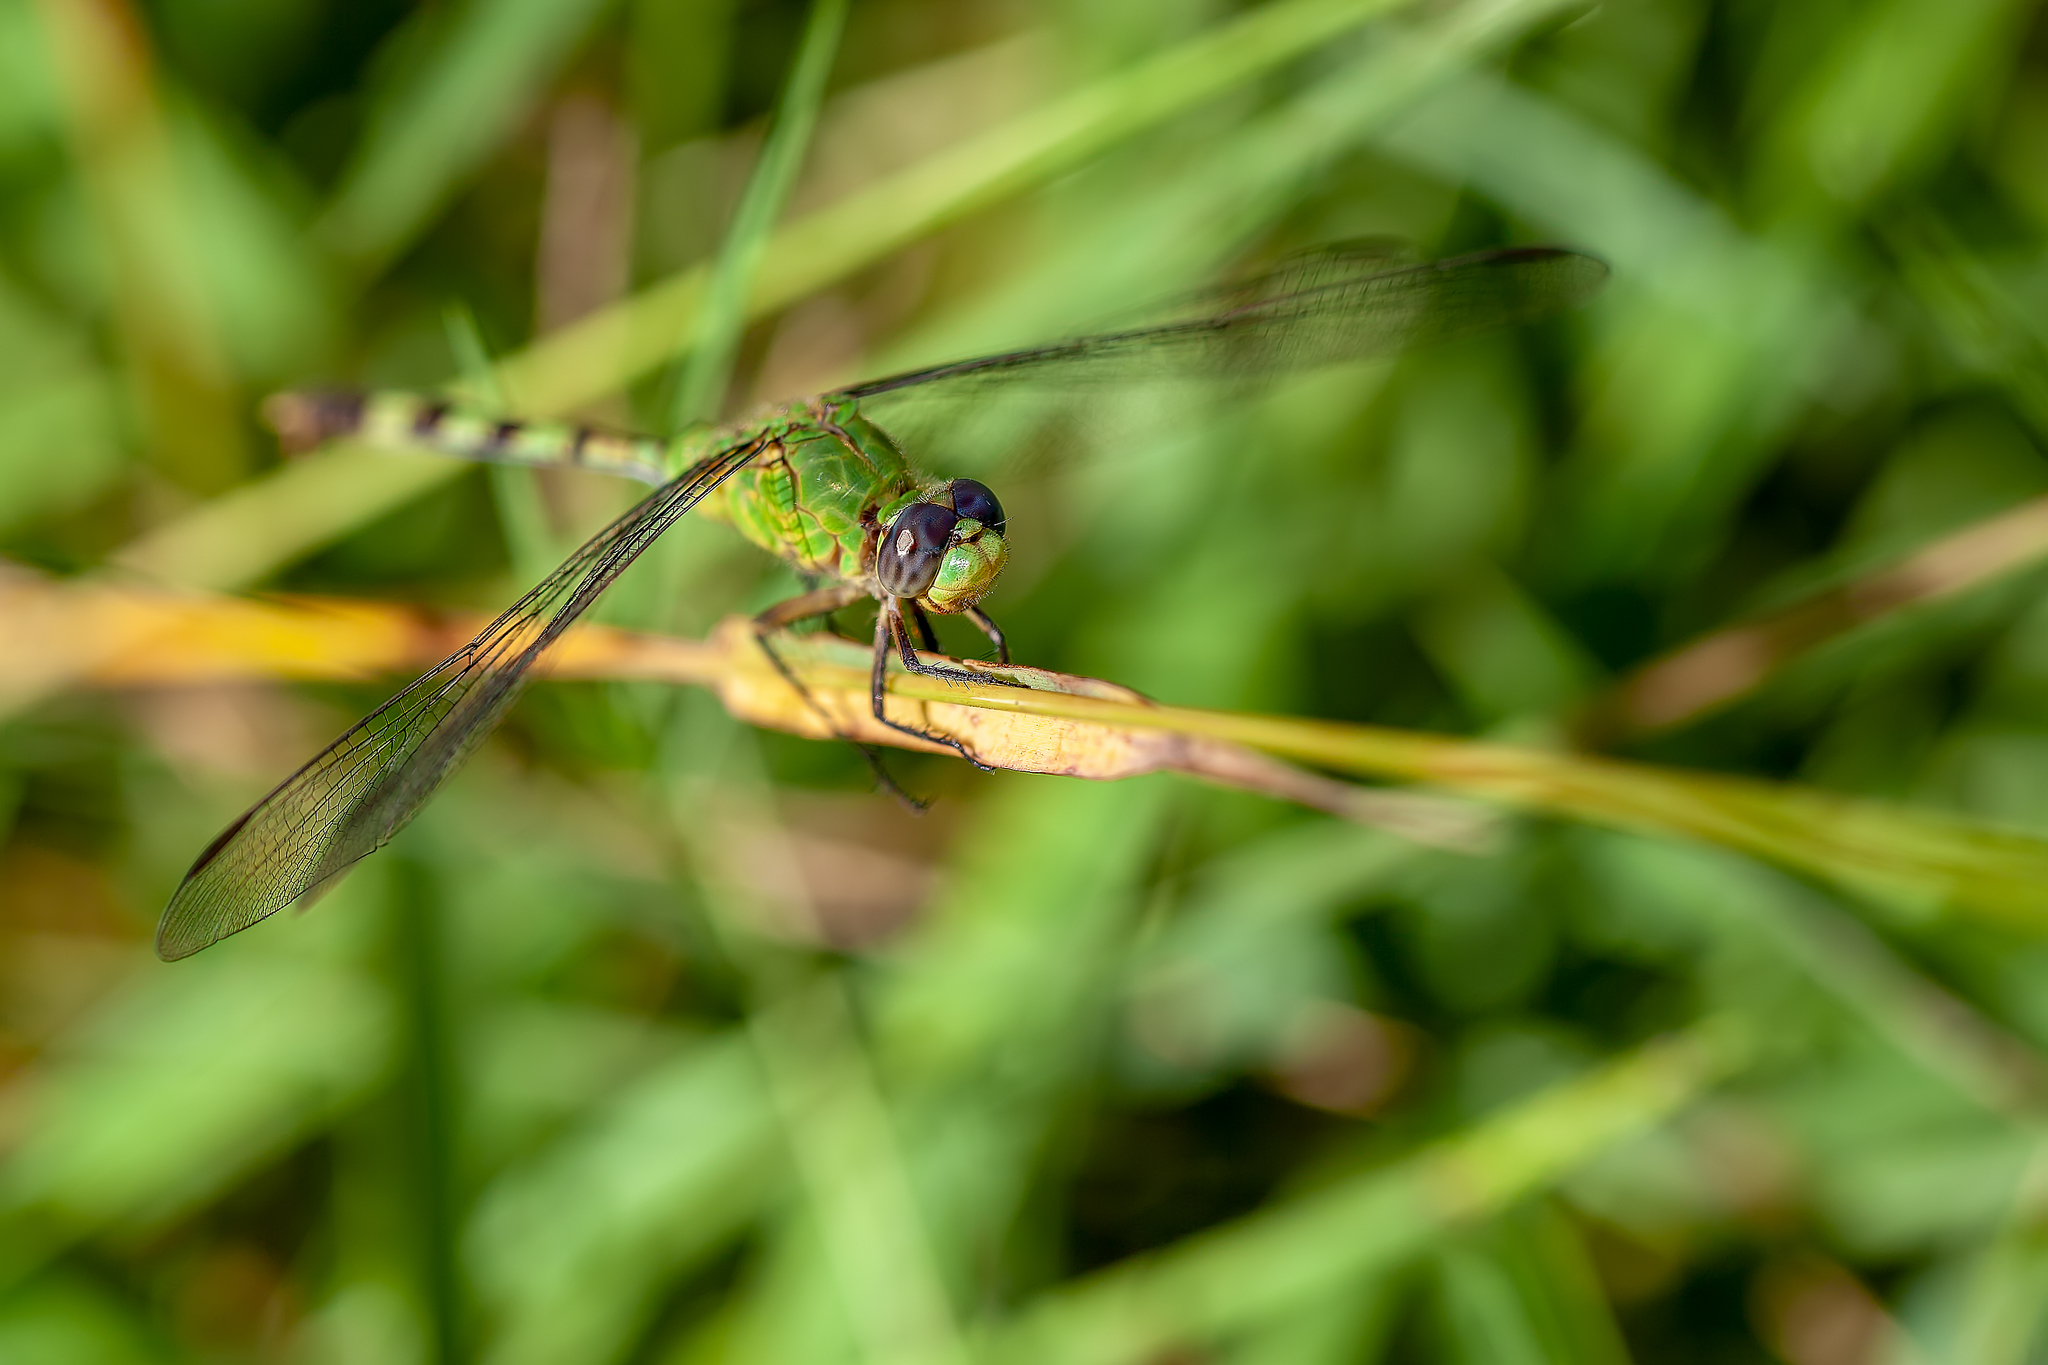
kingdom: Animalia
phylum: Arthropoda
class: Insecta
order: Odonata
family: Libellulidae
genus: Erythemis
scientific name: Erythemis vesiculosa
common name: Great pondhawk
